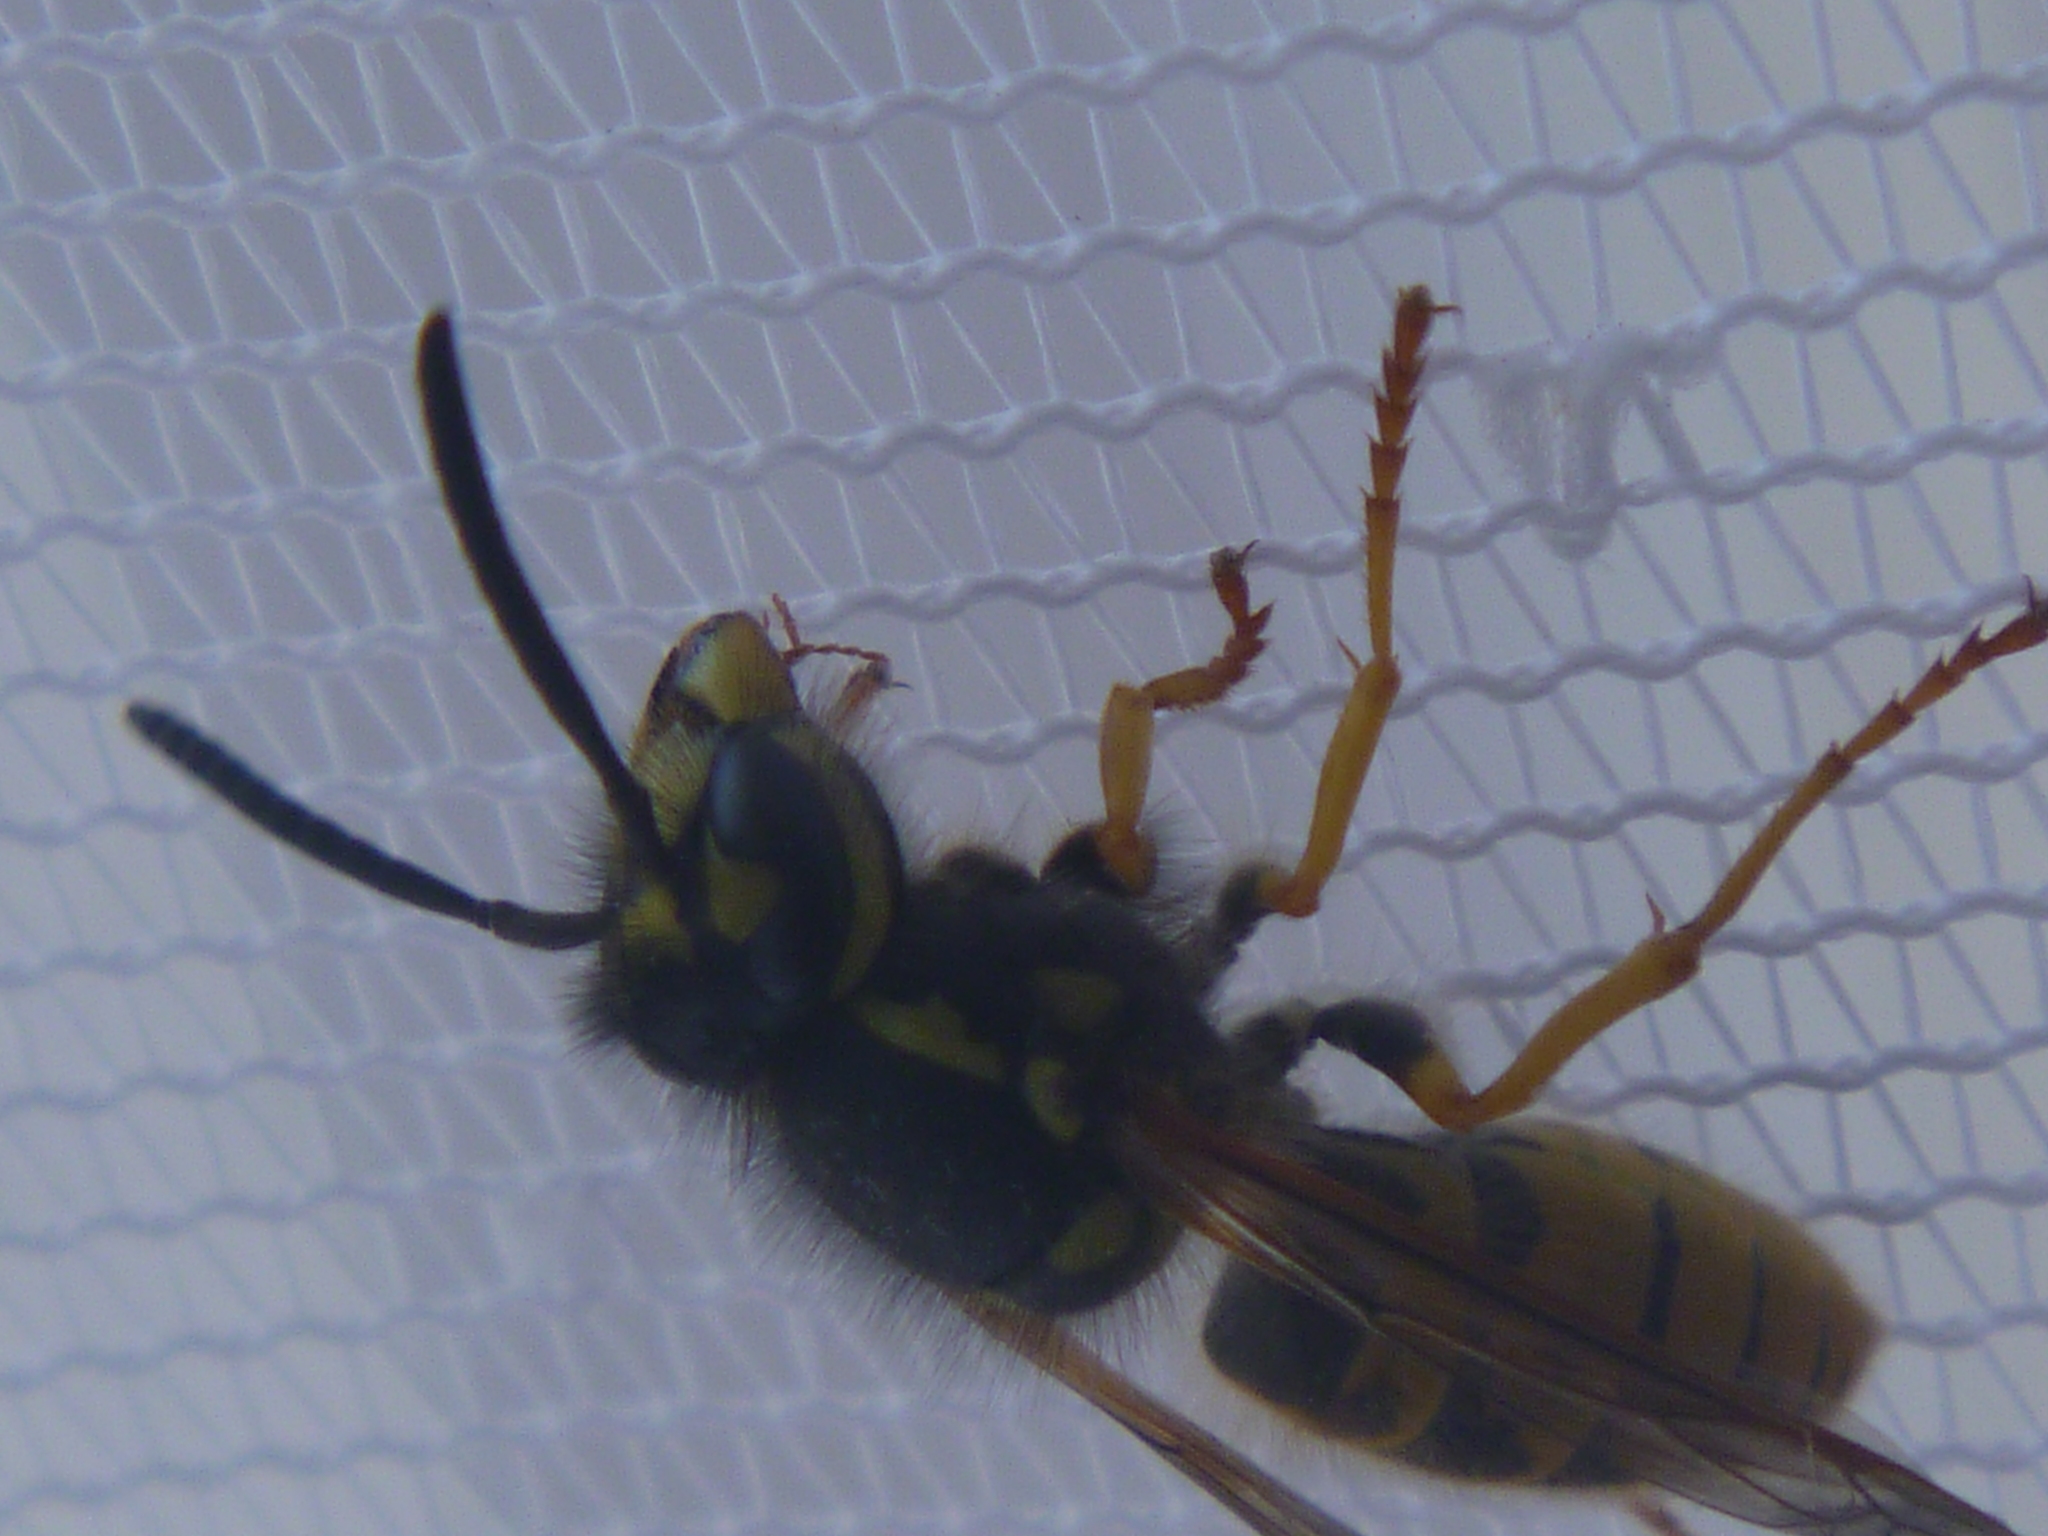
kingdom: Animalia
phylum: Arthropoda
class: Insecta
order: Hymenoptera
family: Vespidae
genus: Vespula
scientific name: Vespula germanica
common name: German wasp
